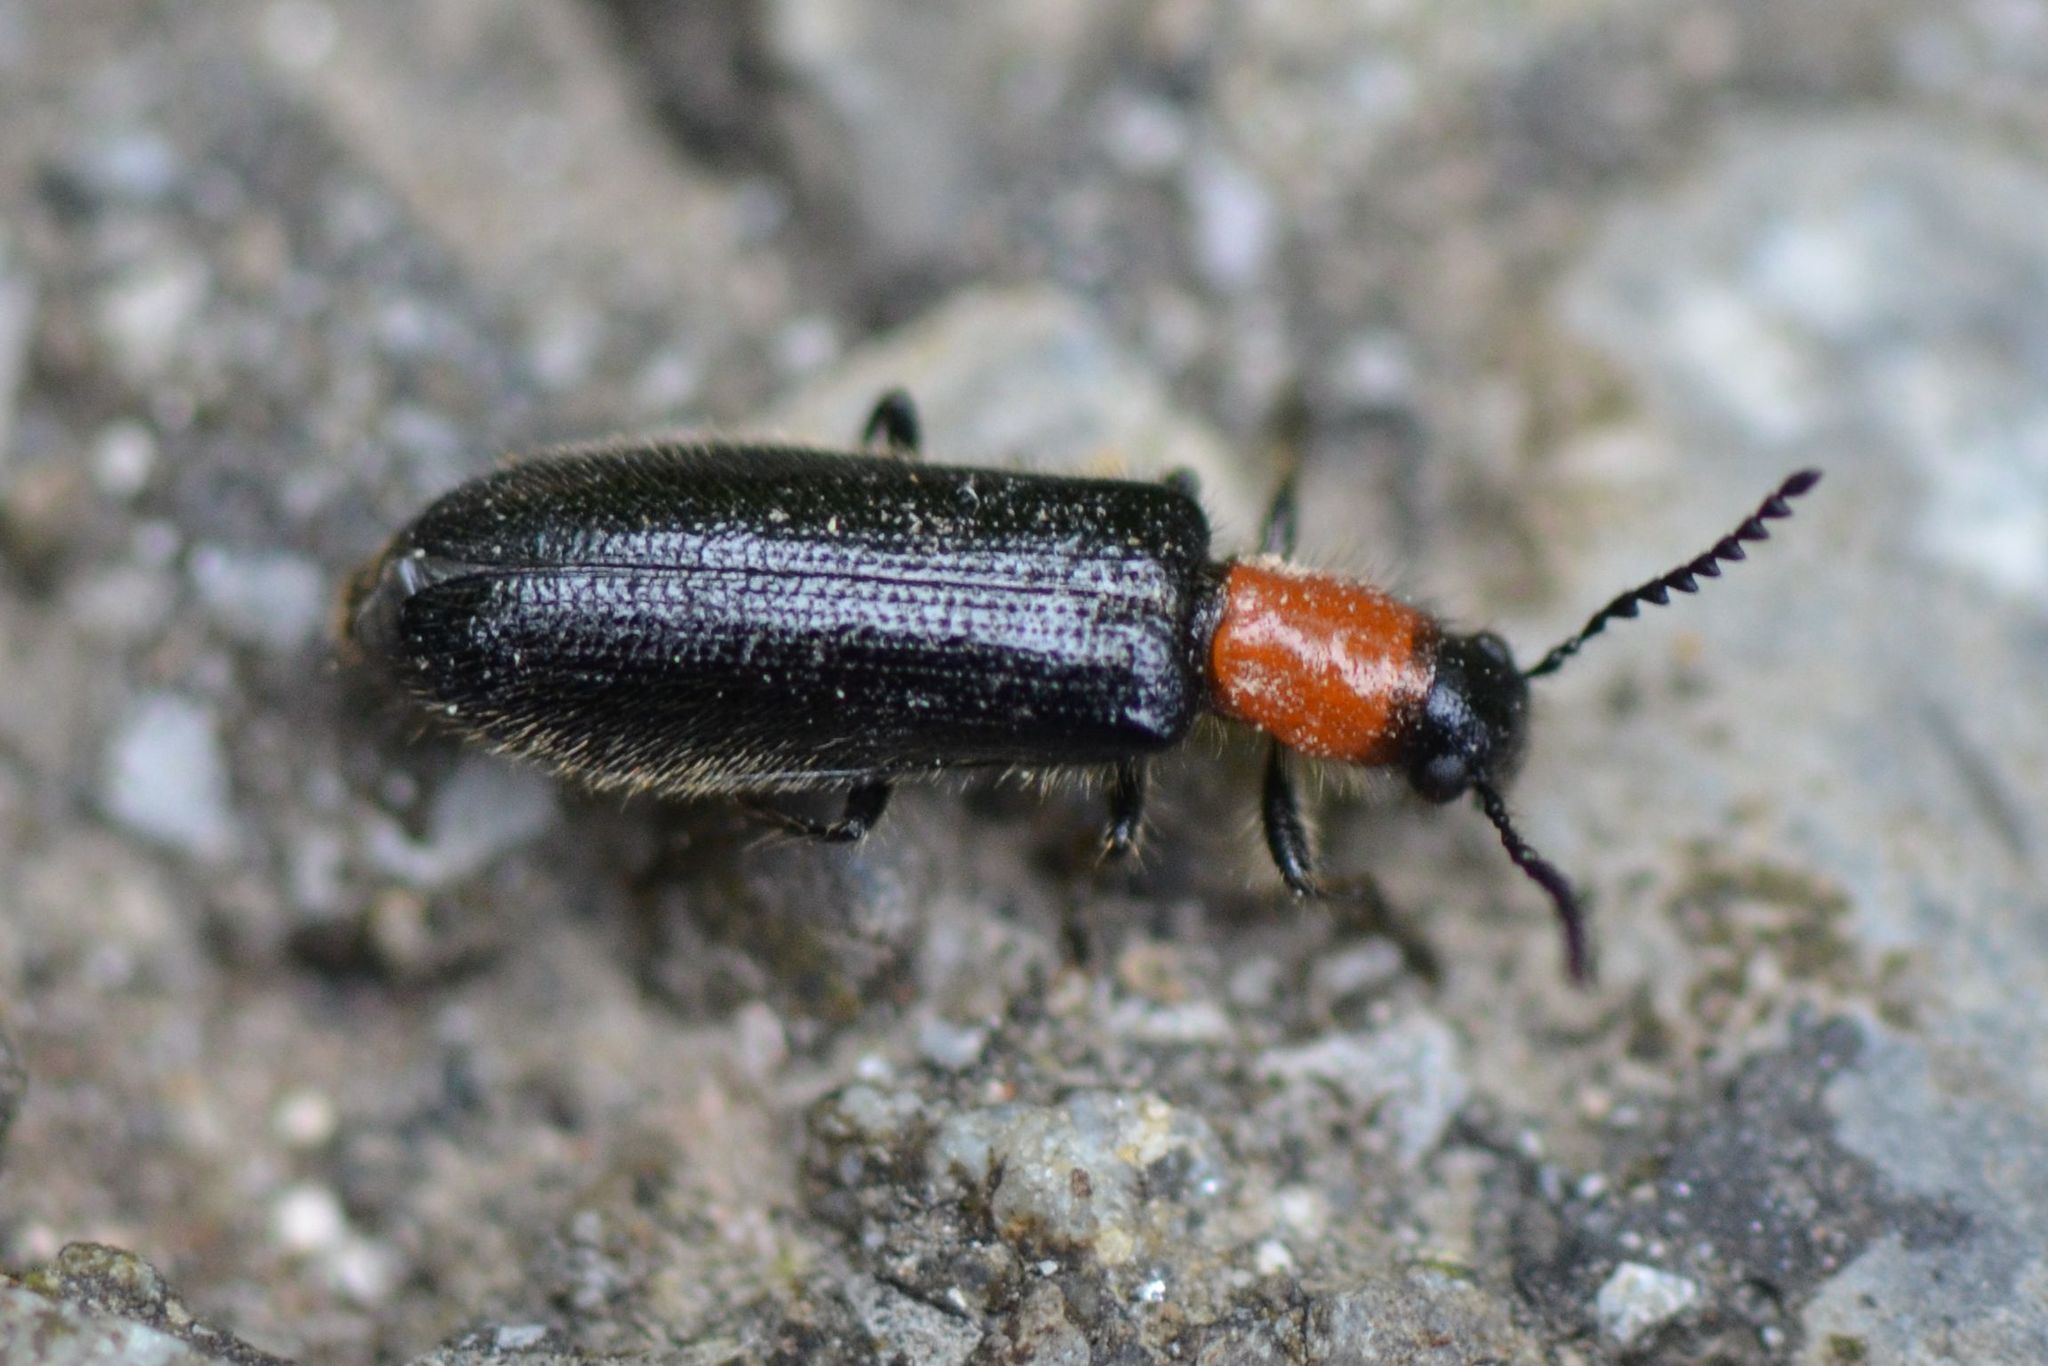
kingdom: Animalia
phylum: Arthropoda
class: Insecta
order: Coleoptera
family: Cleridae
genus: Tillus
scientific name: Tillus elongatus
